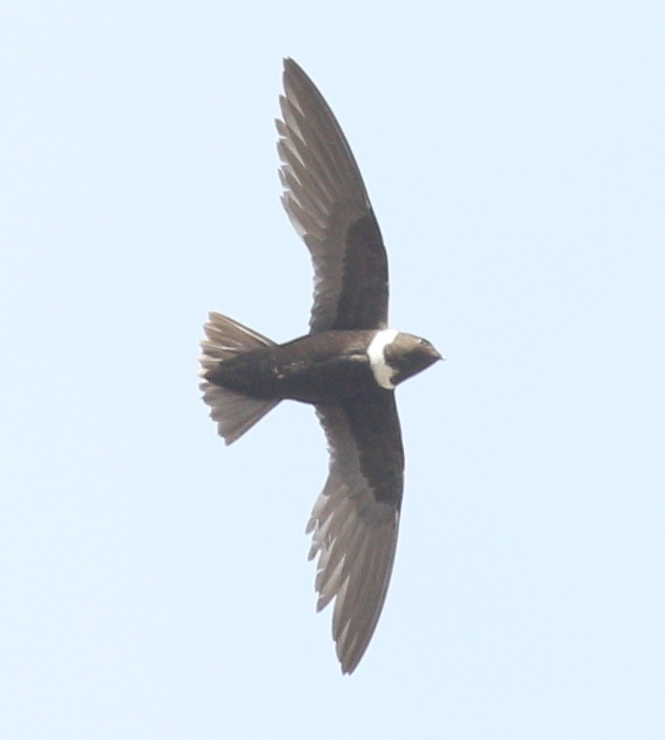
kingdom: Animalia
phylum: Chordata
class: Aves
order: Apodiformes
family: Apodidae
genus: Streptoprocne
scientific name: Streptoprocne zonaris
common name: White-collared swift
